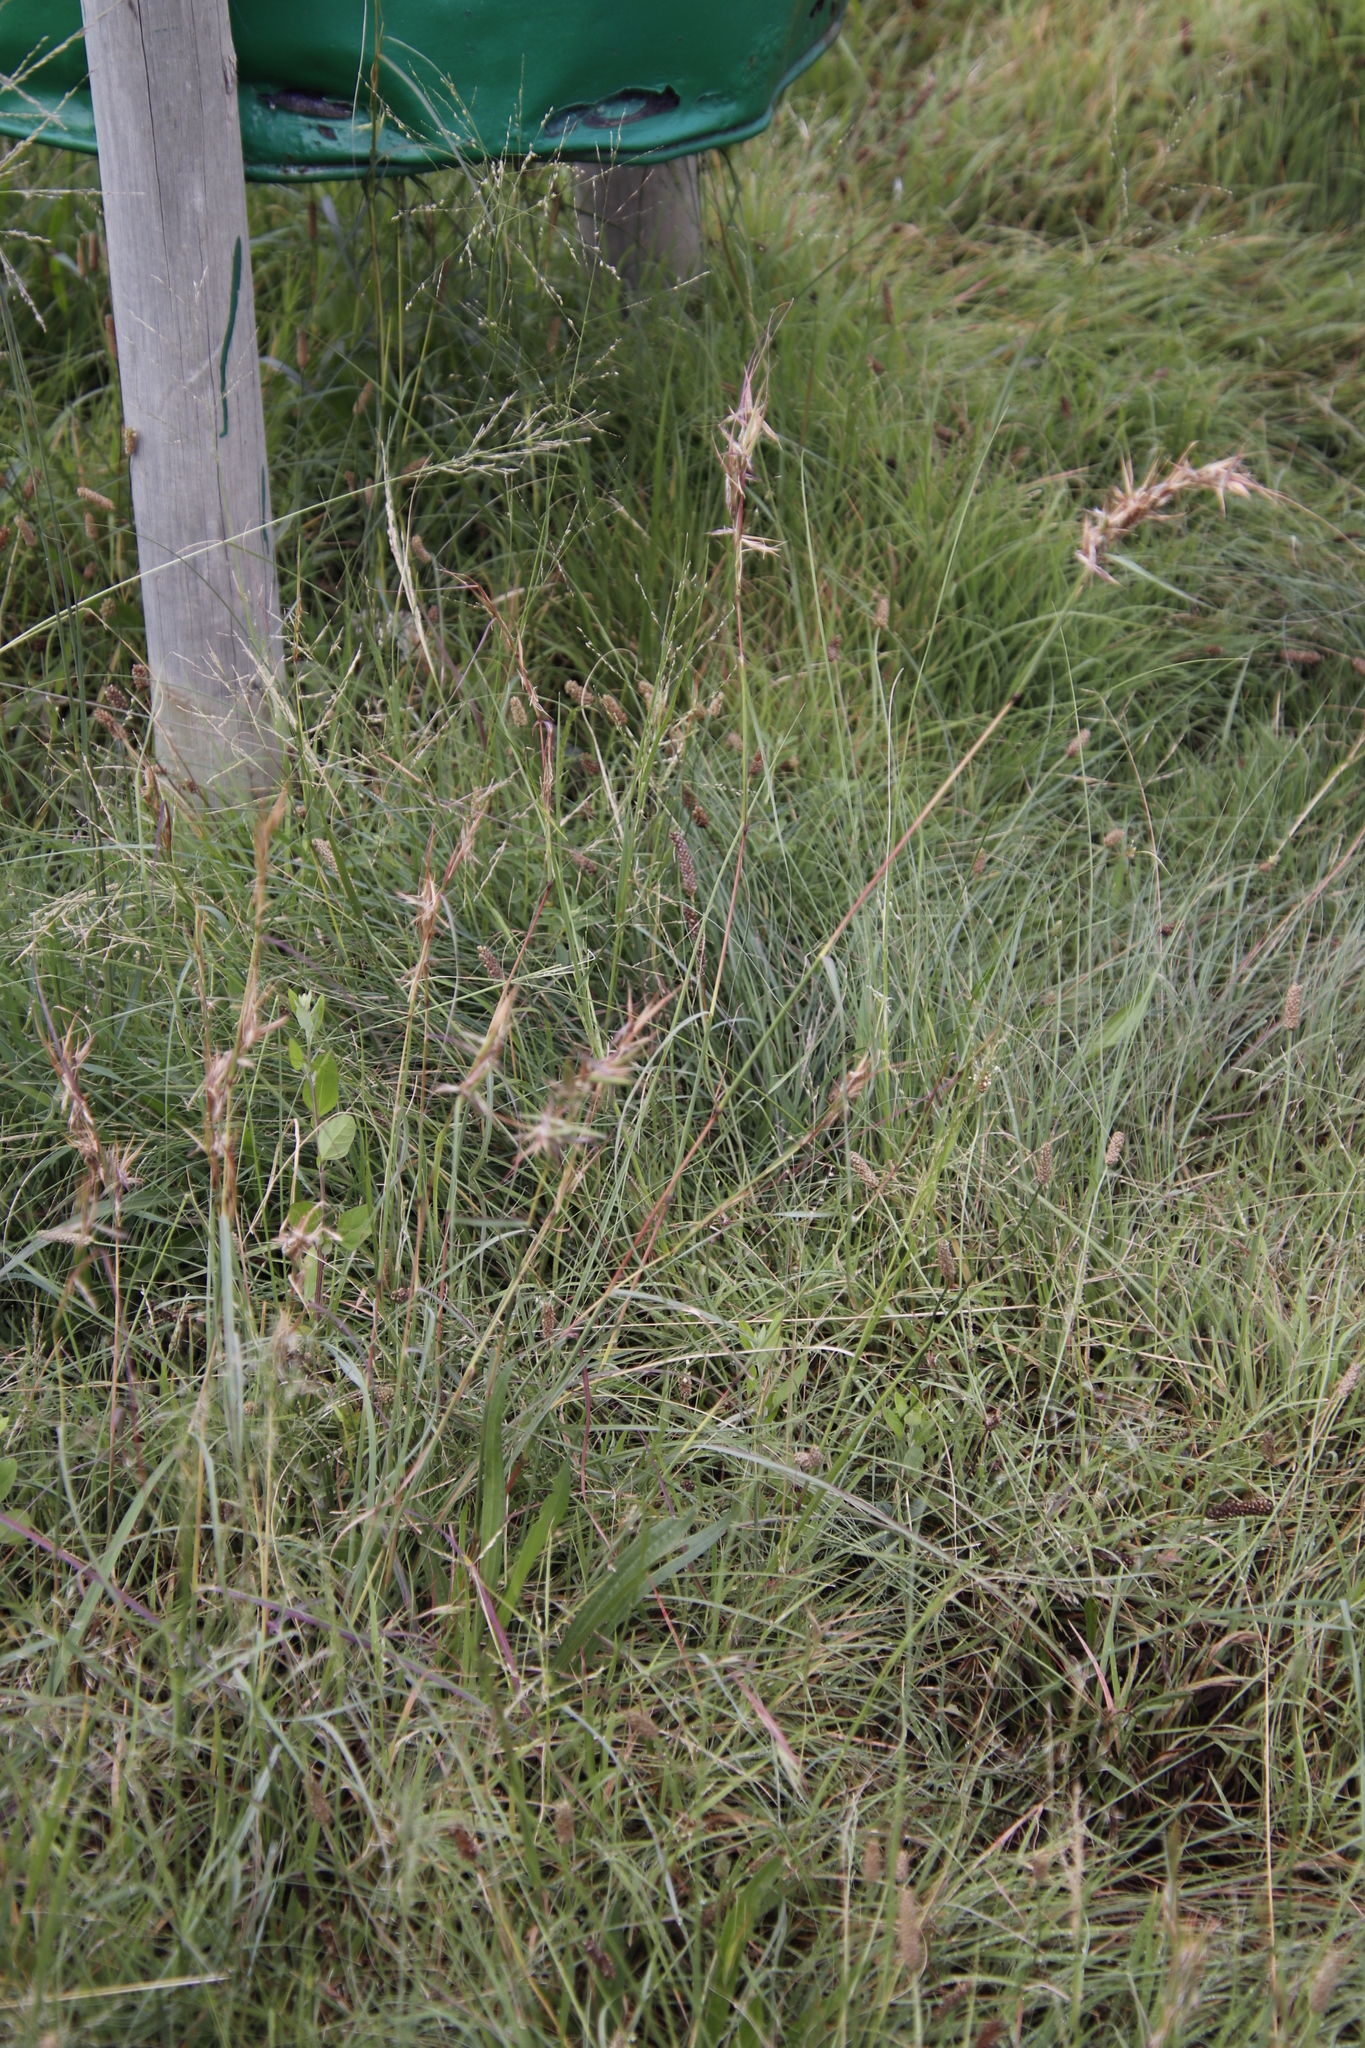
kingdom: Plantae
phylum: Tracheophyta
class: Liliopsida
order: Poales
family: Poaceae
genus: Cymbopogon
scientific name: Cymbopogon pospischilii
